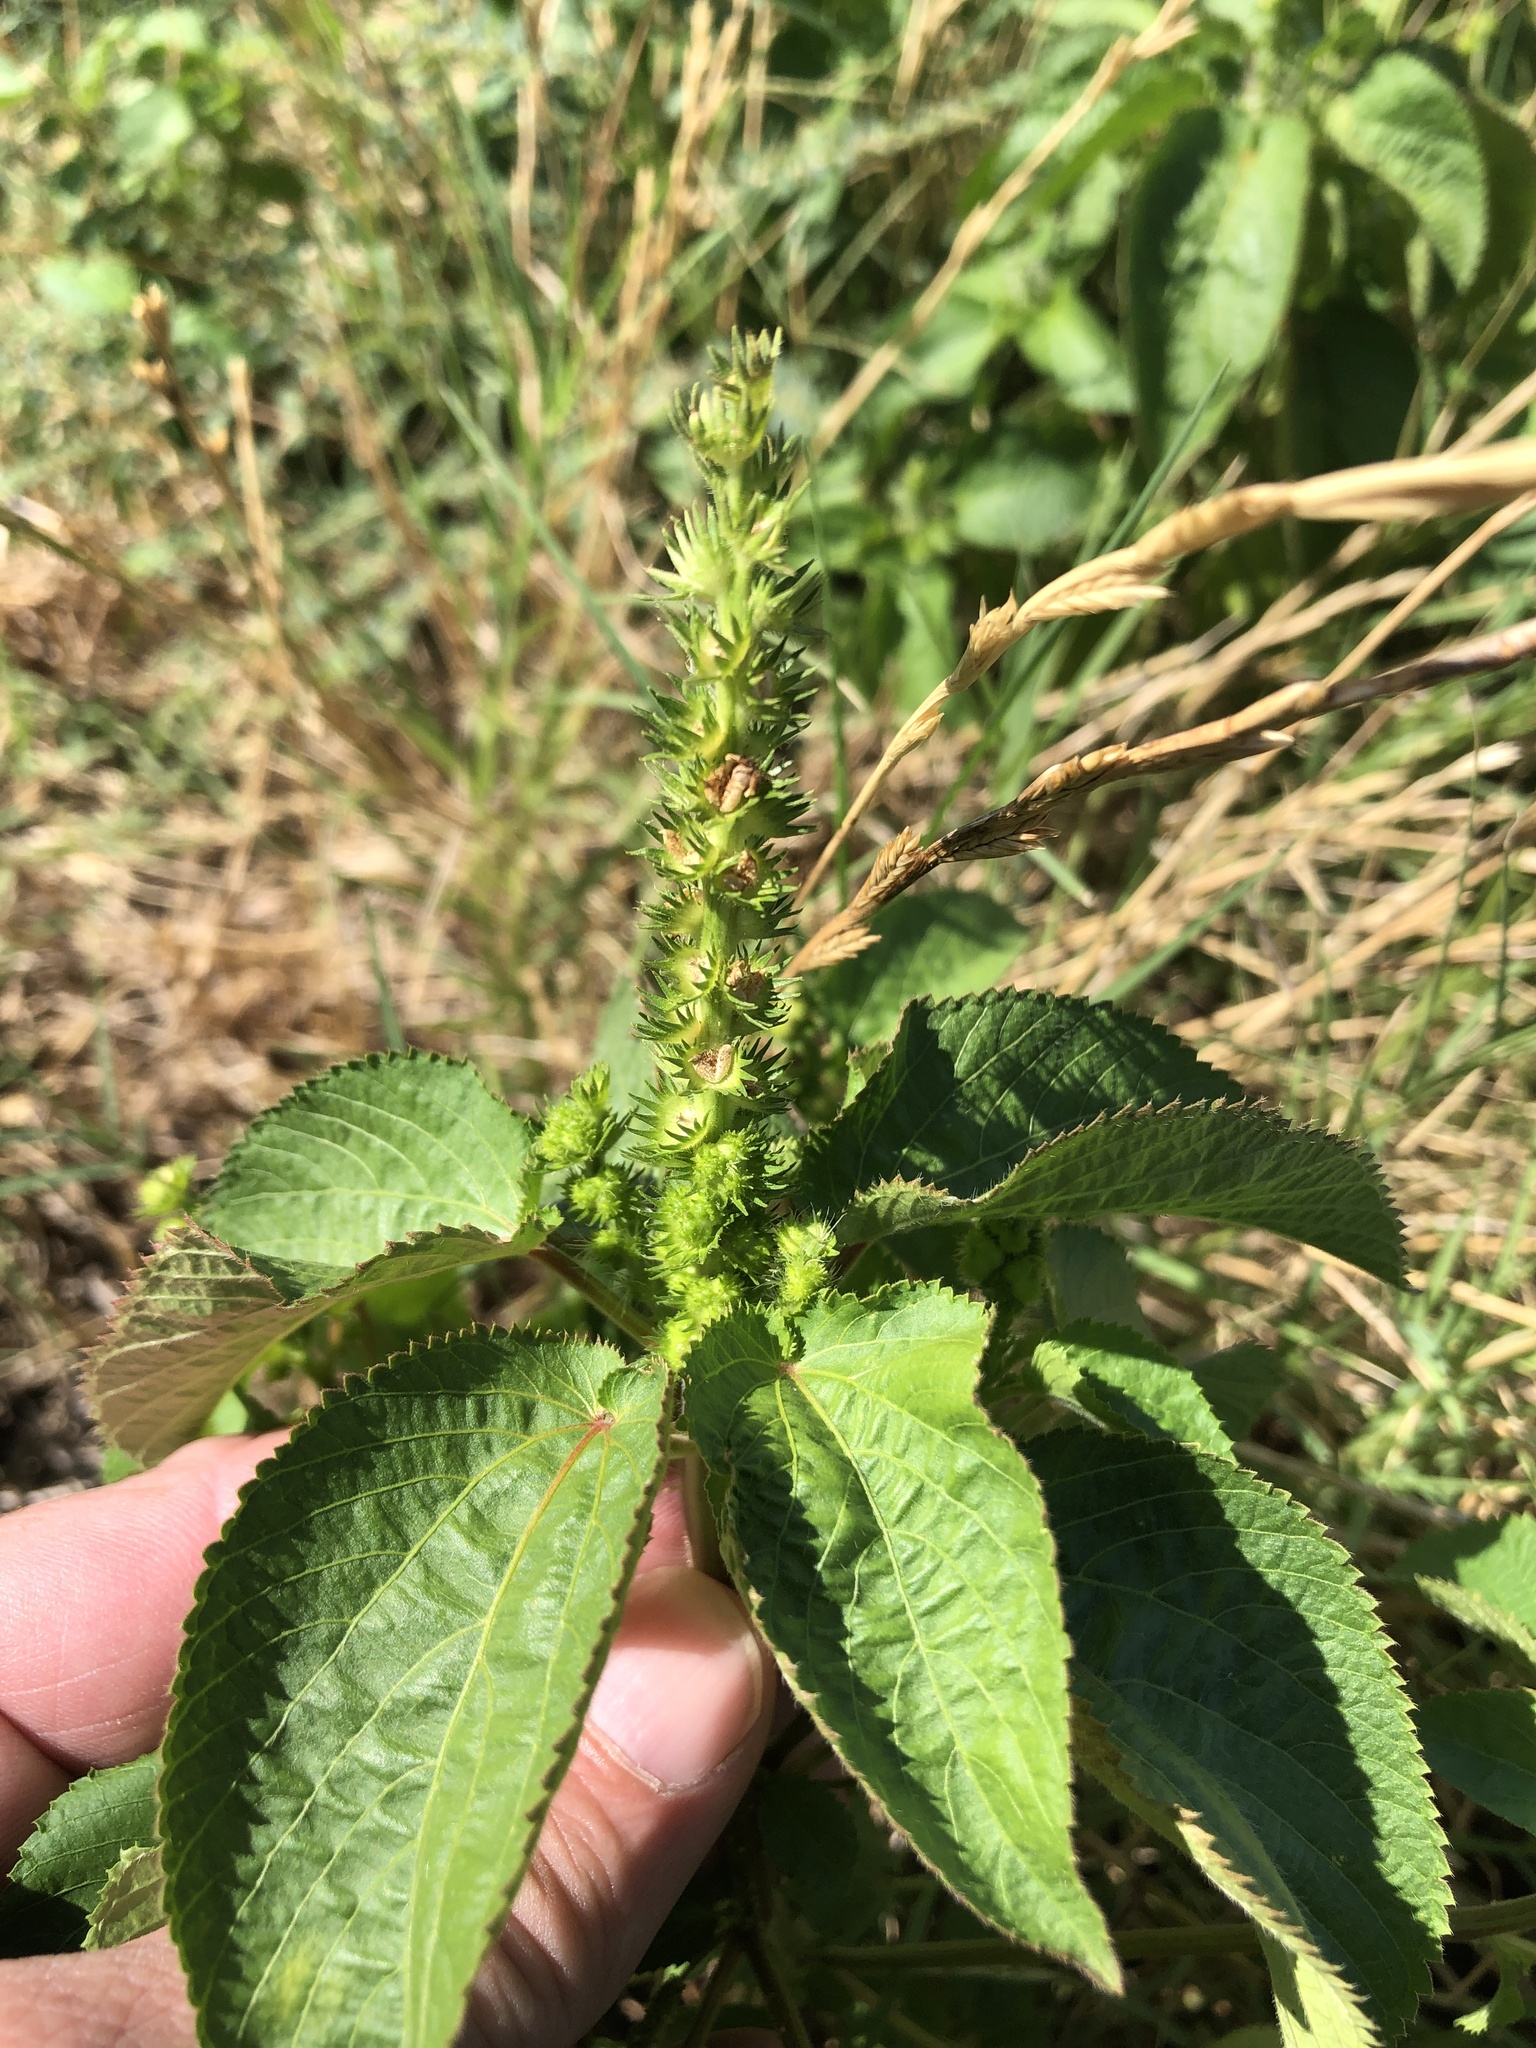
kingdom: Plantae
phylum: Tracheophyta
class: Magnoliopsida
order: Malpighiales
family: Euphorbiaceae
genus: Acalypha
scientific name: Acalypha ostryifolia
